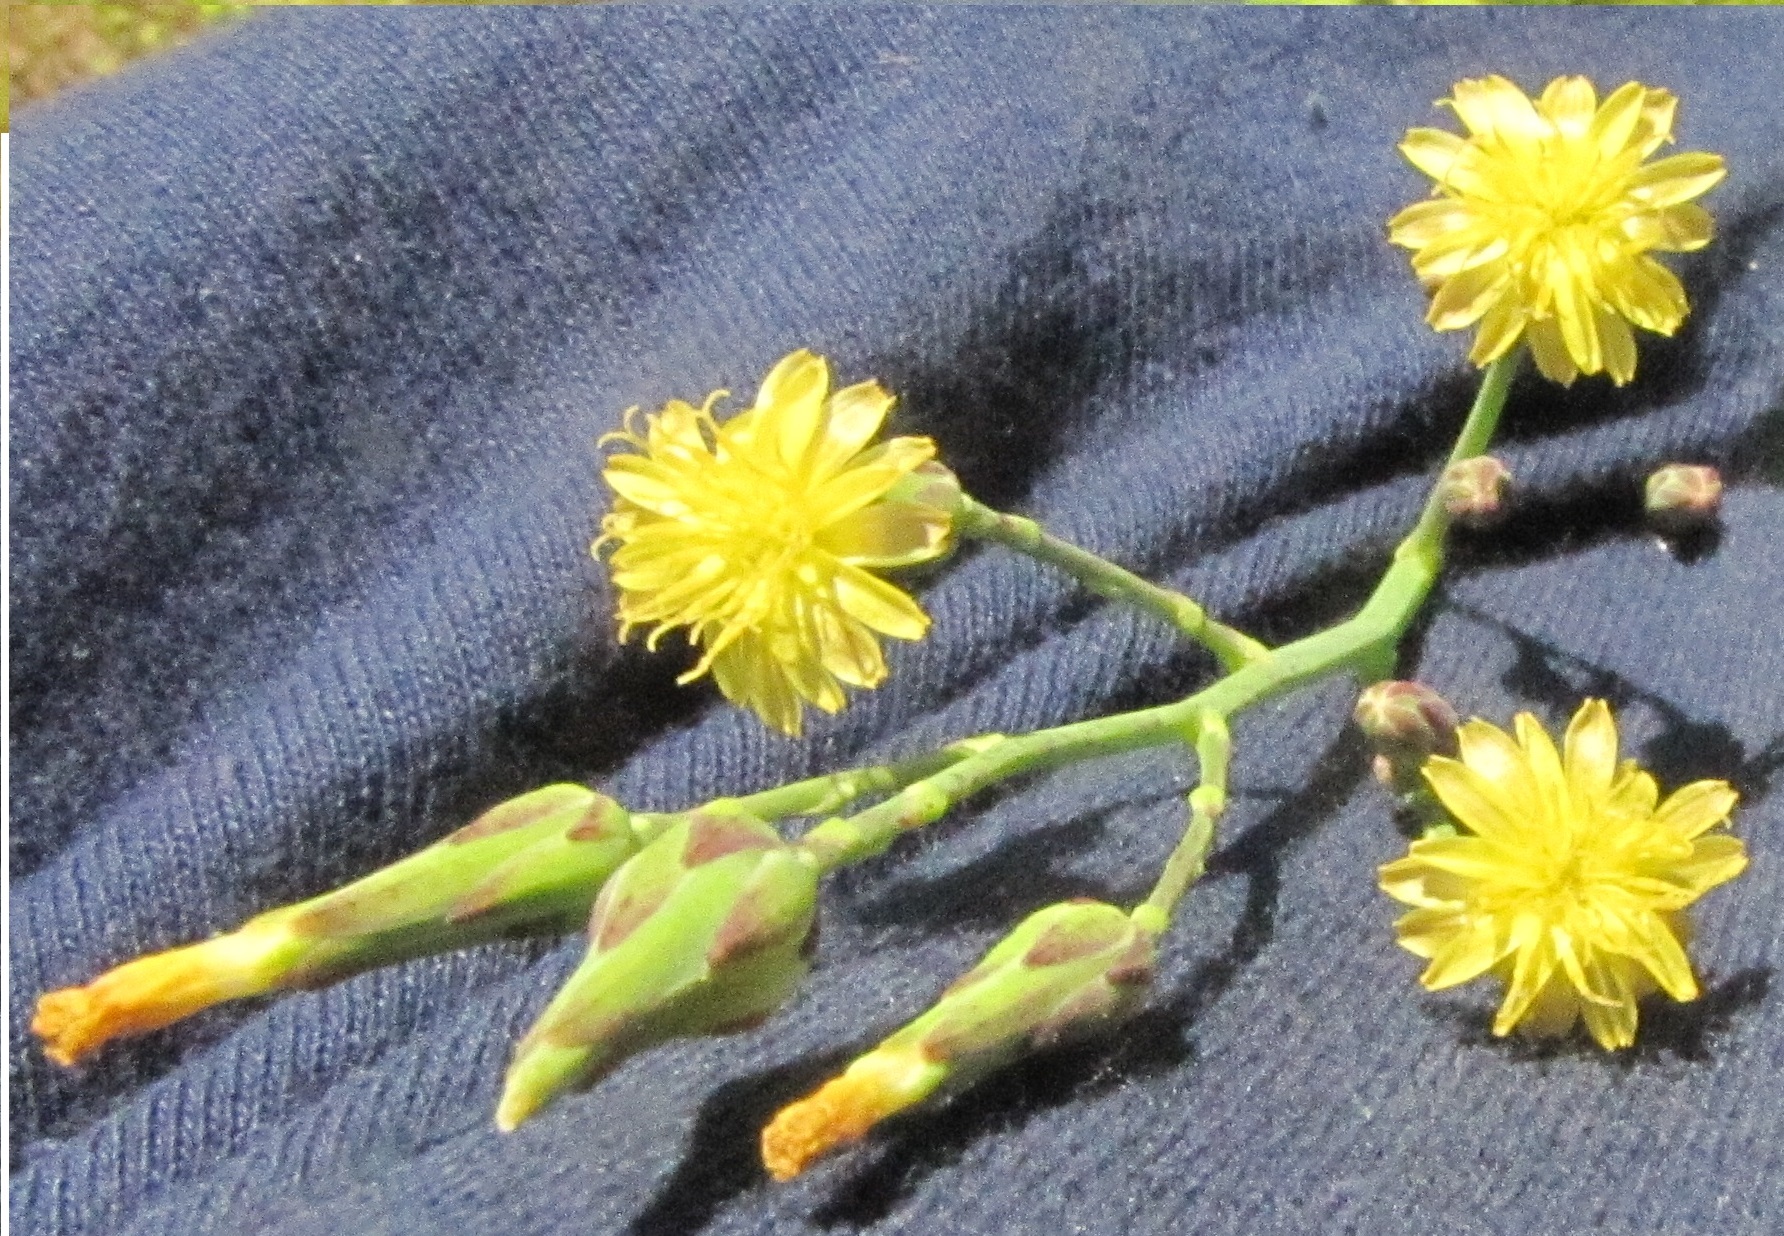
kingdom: Plantae
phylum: Tracheophyta
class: Magnoliopsida
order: Asterales
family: Asteraceae
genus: Lactuca
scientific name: Lactuca canadensis
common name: Canada lettuce
